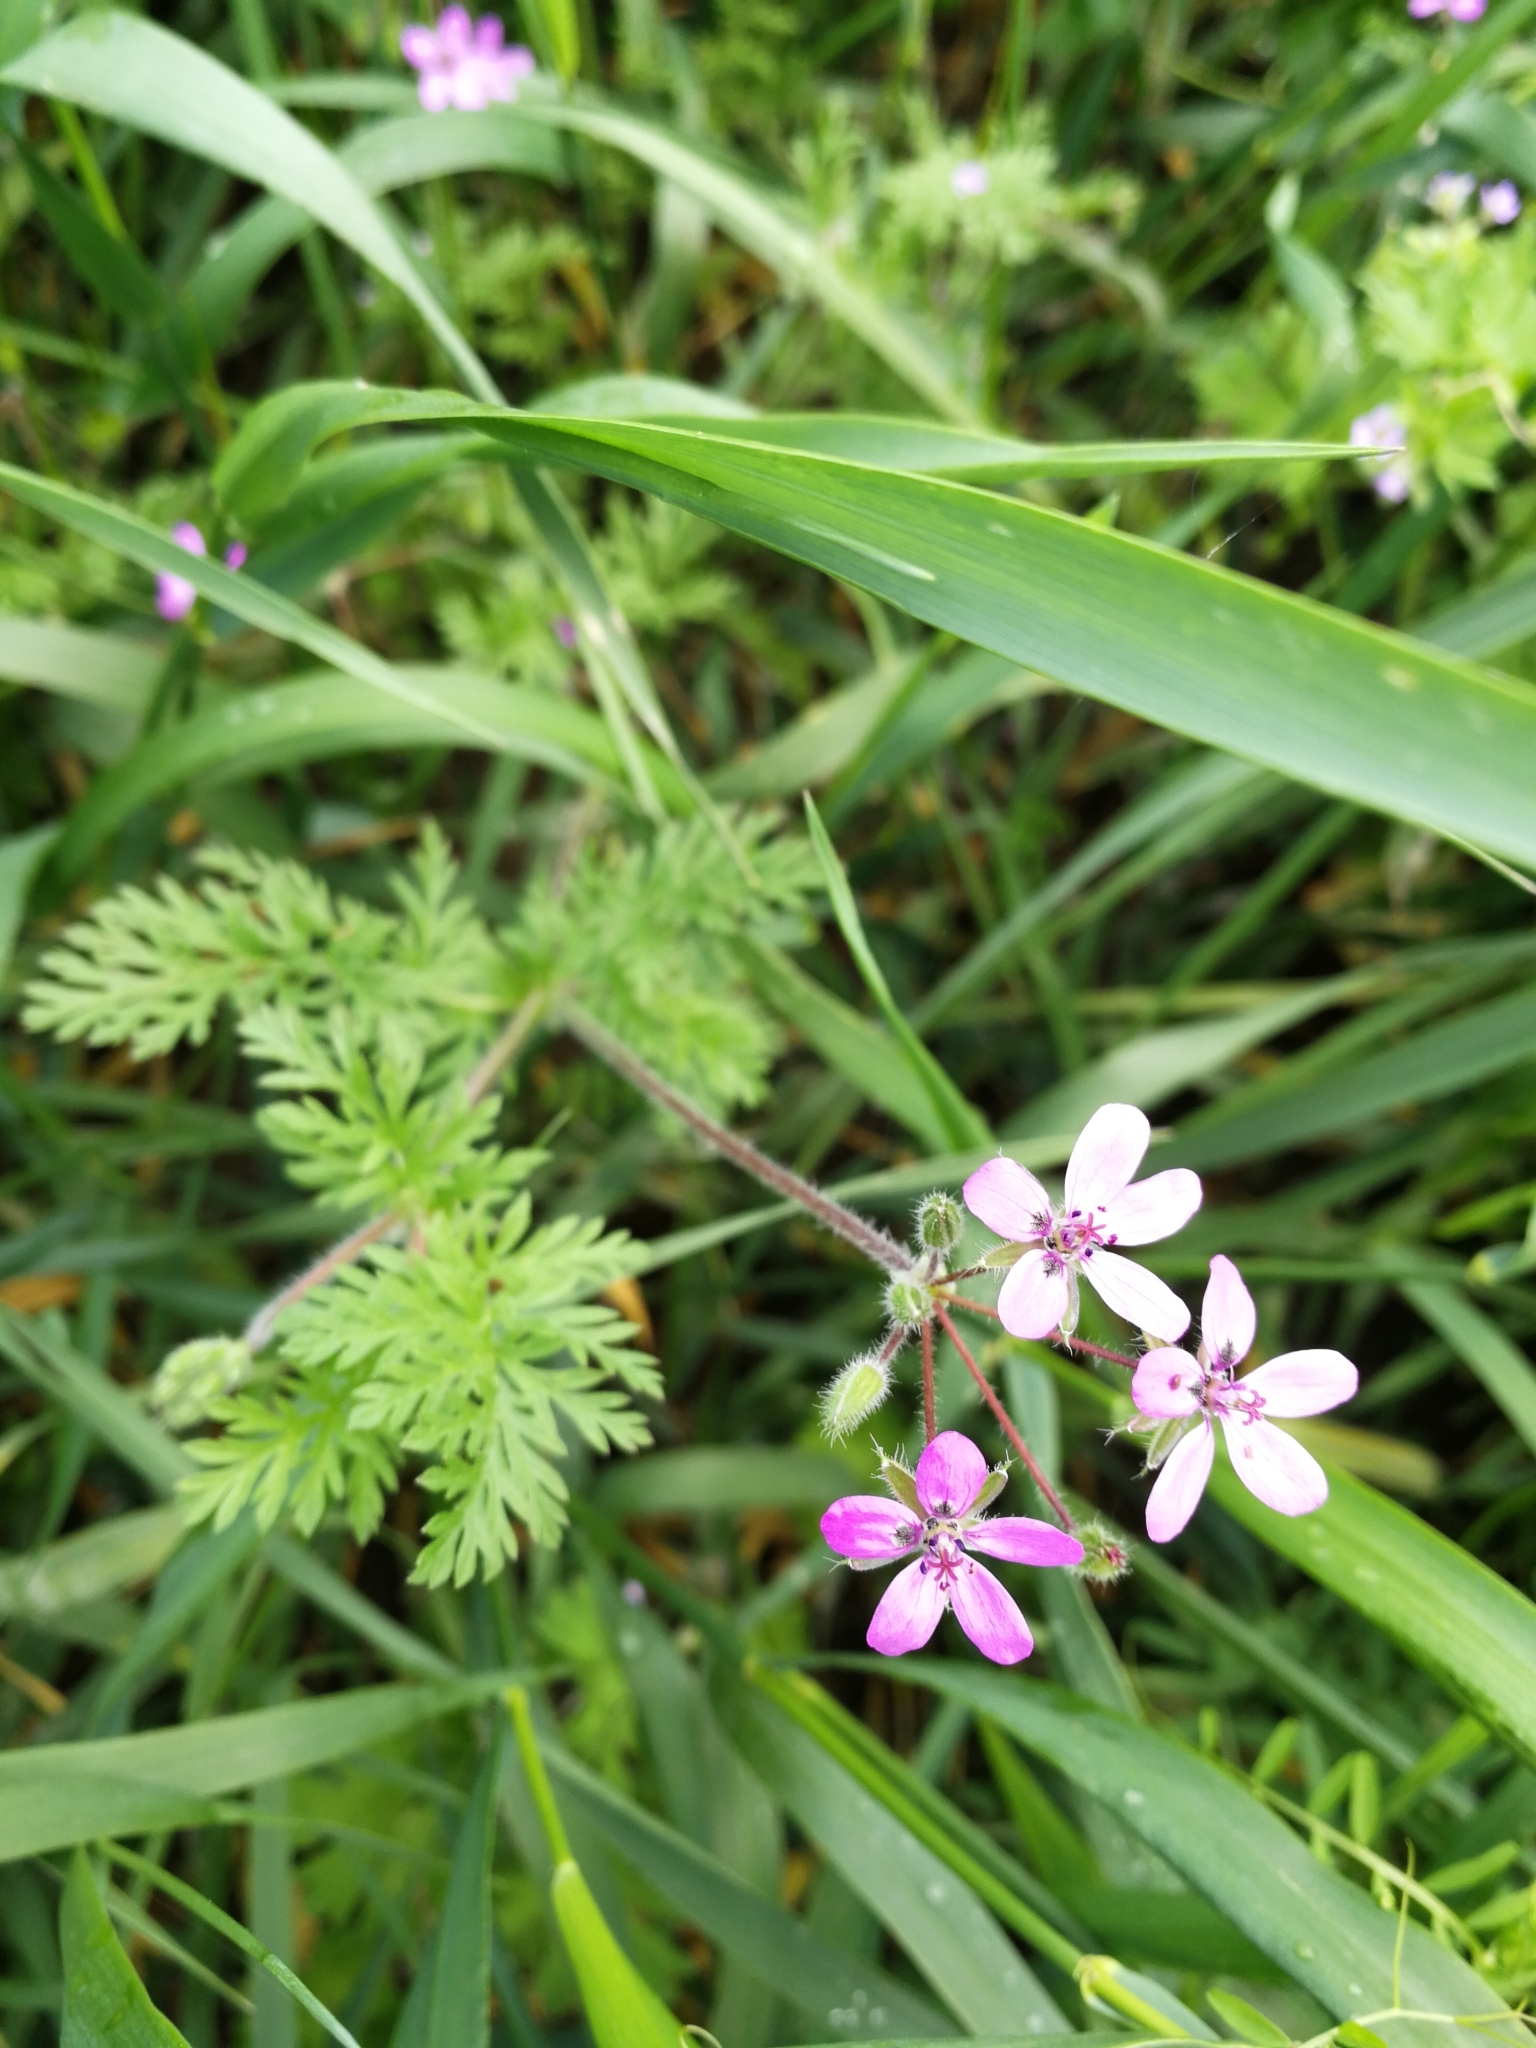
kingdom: Plantae
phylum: Tracheophyta
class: Magnoliopsida
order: Geraniales
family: Geraniaceae
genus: Erodium
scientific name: Erodium cicutarium
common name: Common stork's-bill
